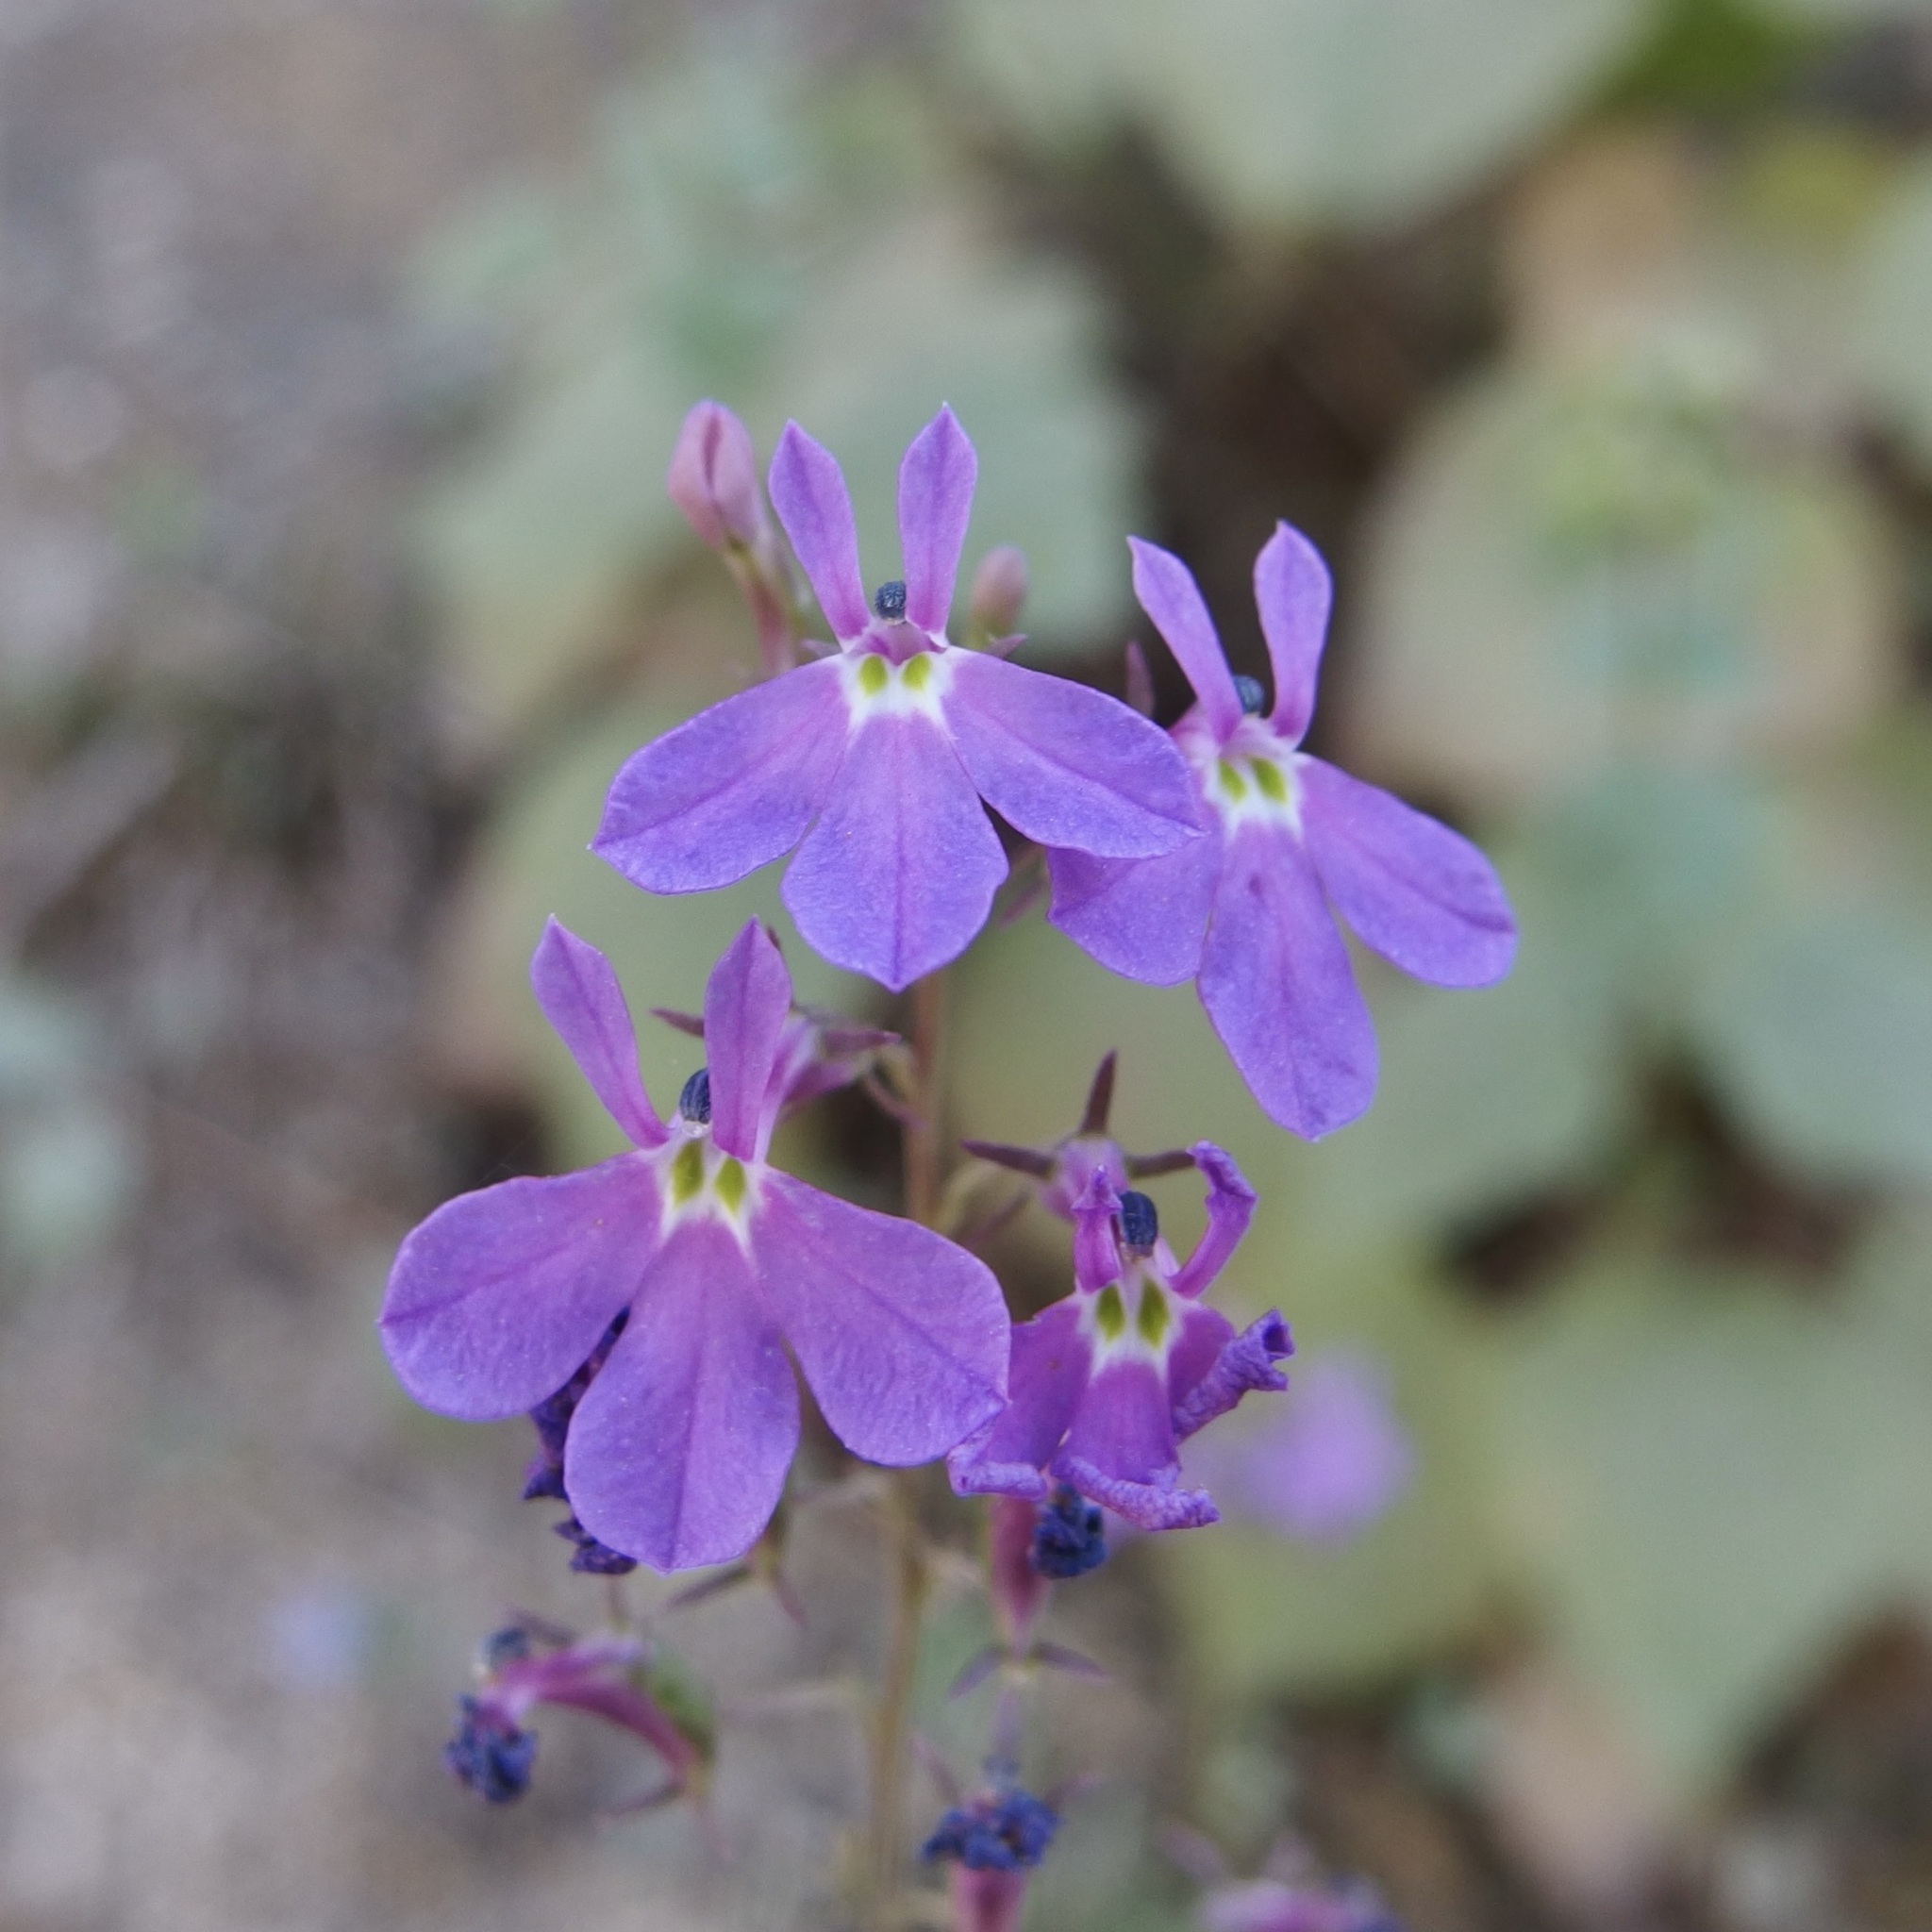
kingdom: Plantae
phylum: Tracheophyta
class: Magnoliopsida
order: Asterales
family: Campanulaceae
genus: Lobelia
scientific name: Lobelia aurita
